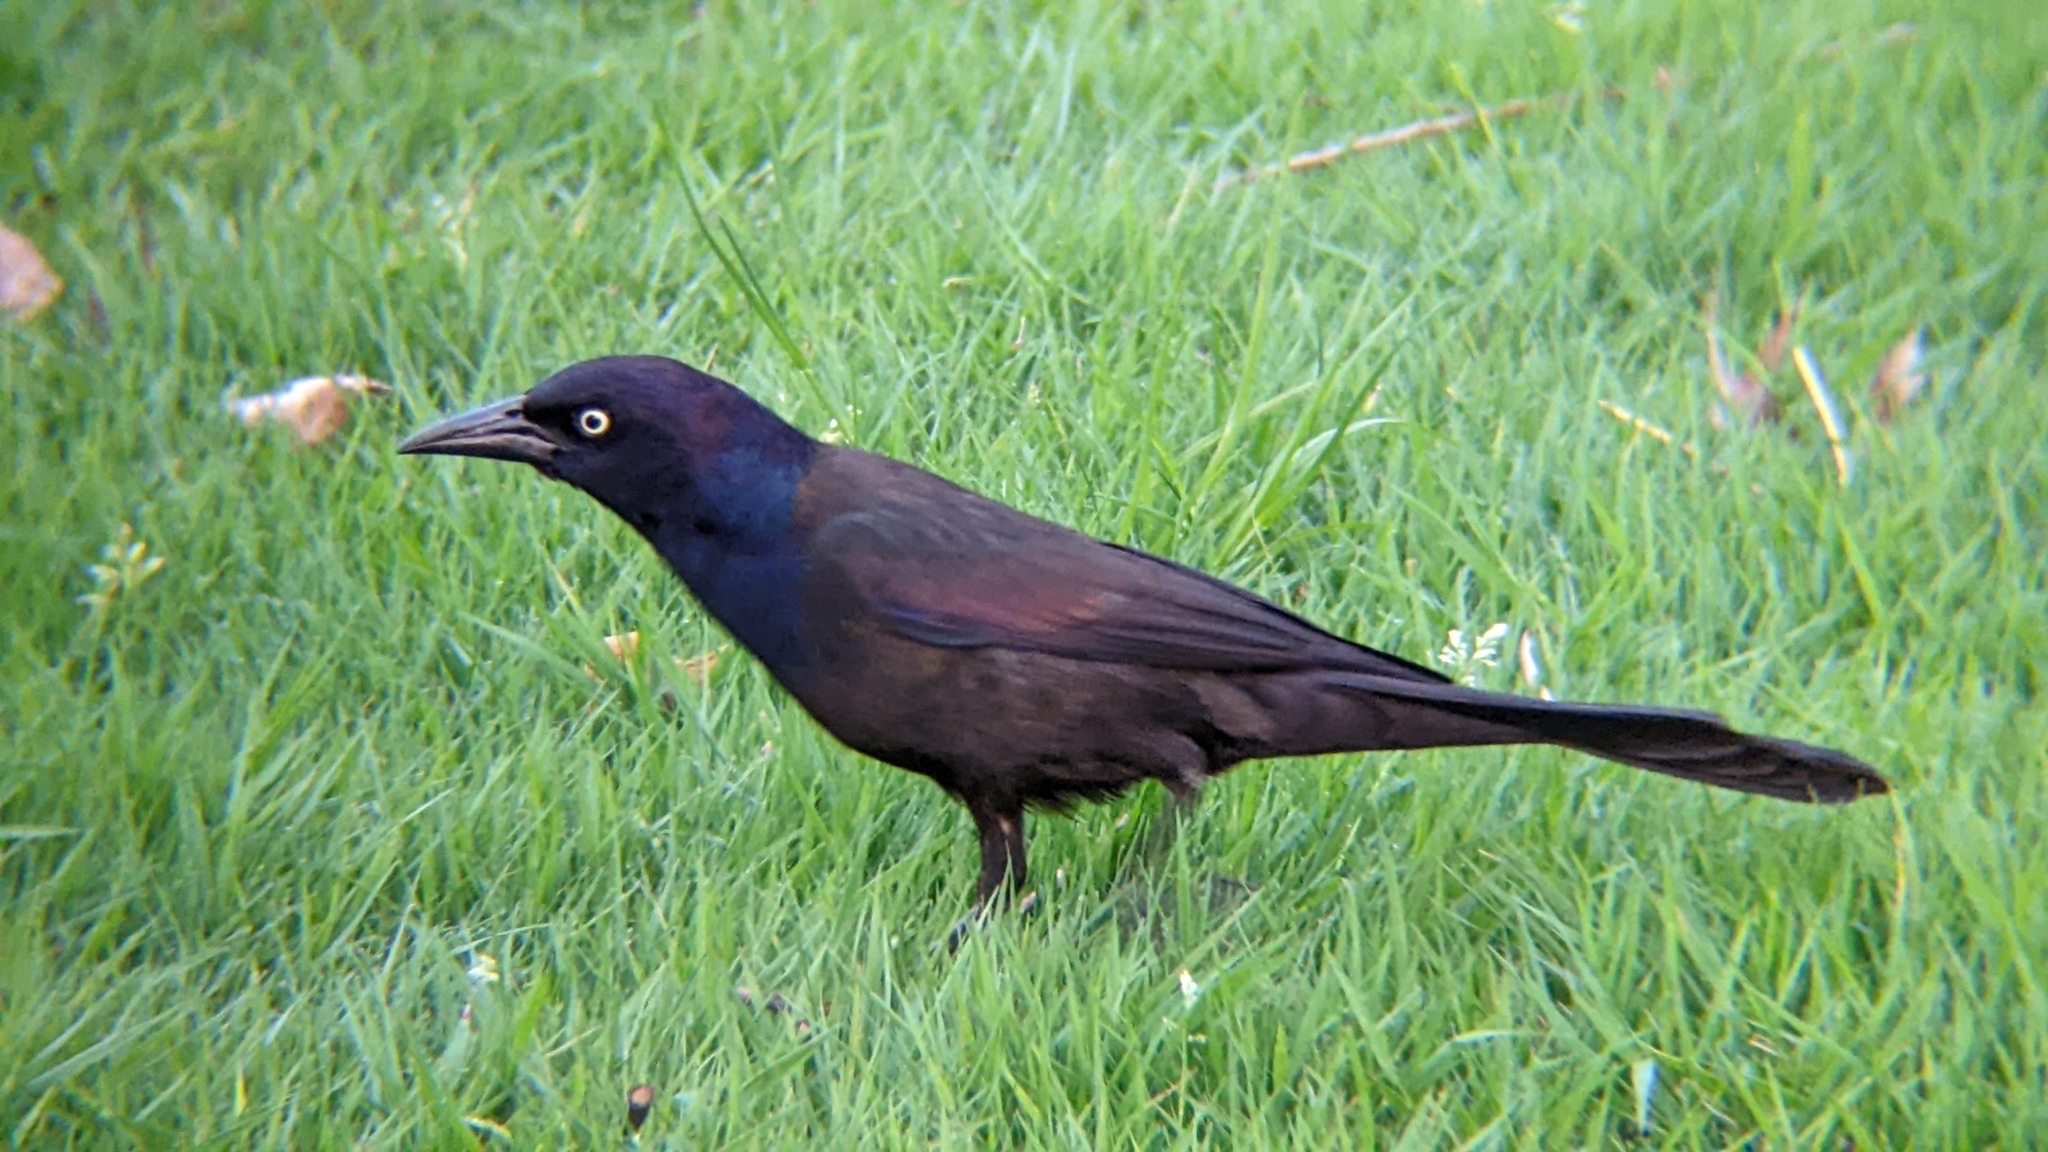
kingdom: Animalia
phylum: Chordata
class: Aves
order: Passeriformes
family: Icteridae
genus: Quiscalus
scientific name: Quiscalus quiscula
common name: Common grackle
